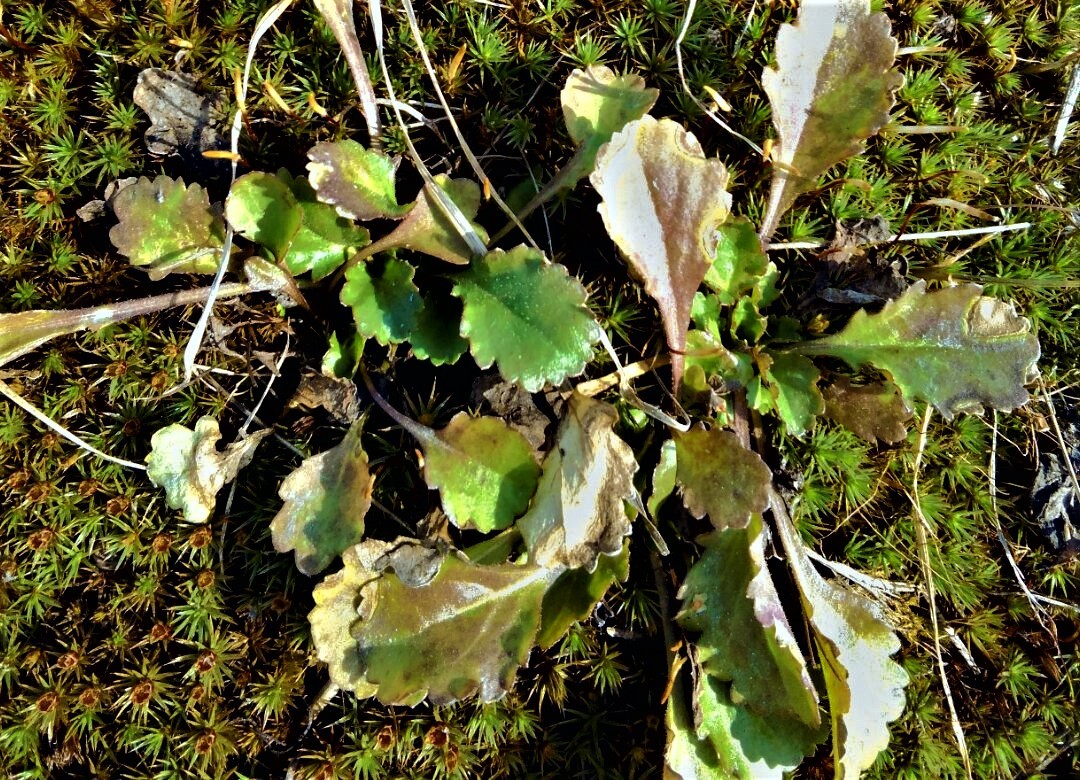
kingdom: Plantae
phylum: Tracheophyta
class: Magnoliopsida
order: Asterales
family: Asteraceae
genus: Leucanthemum
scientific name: Leucanthemum vulgare
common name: Oxeye daisy
